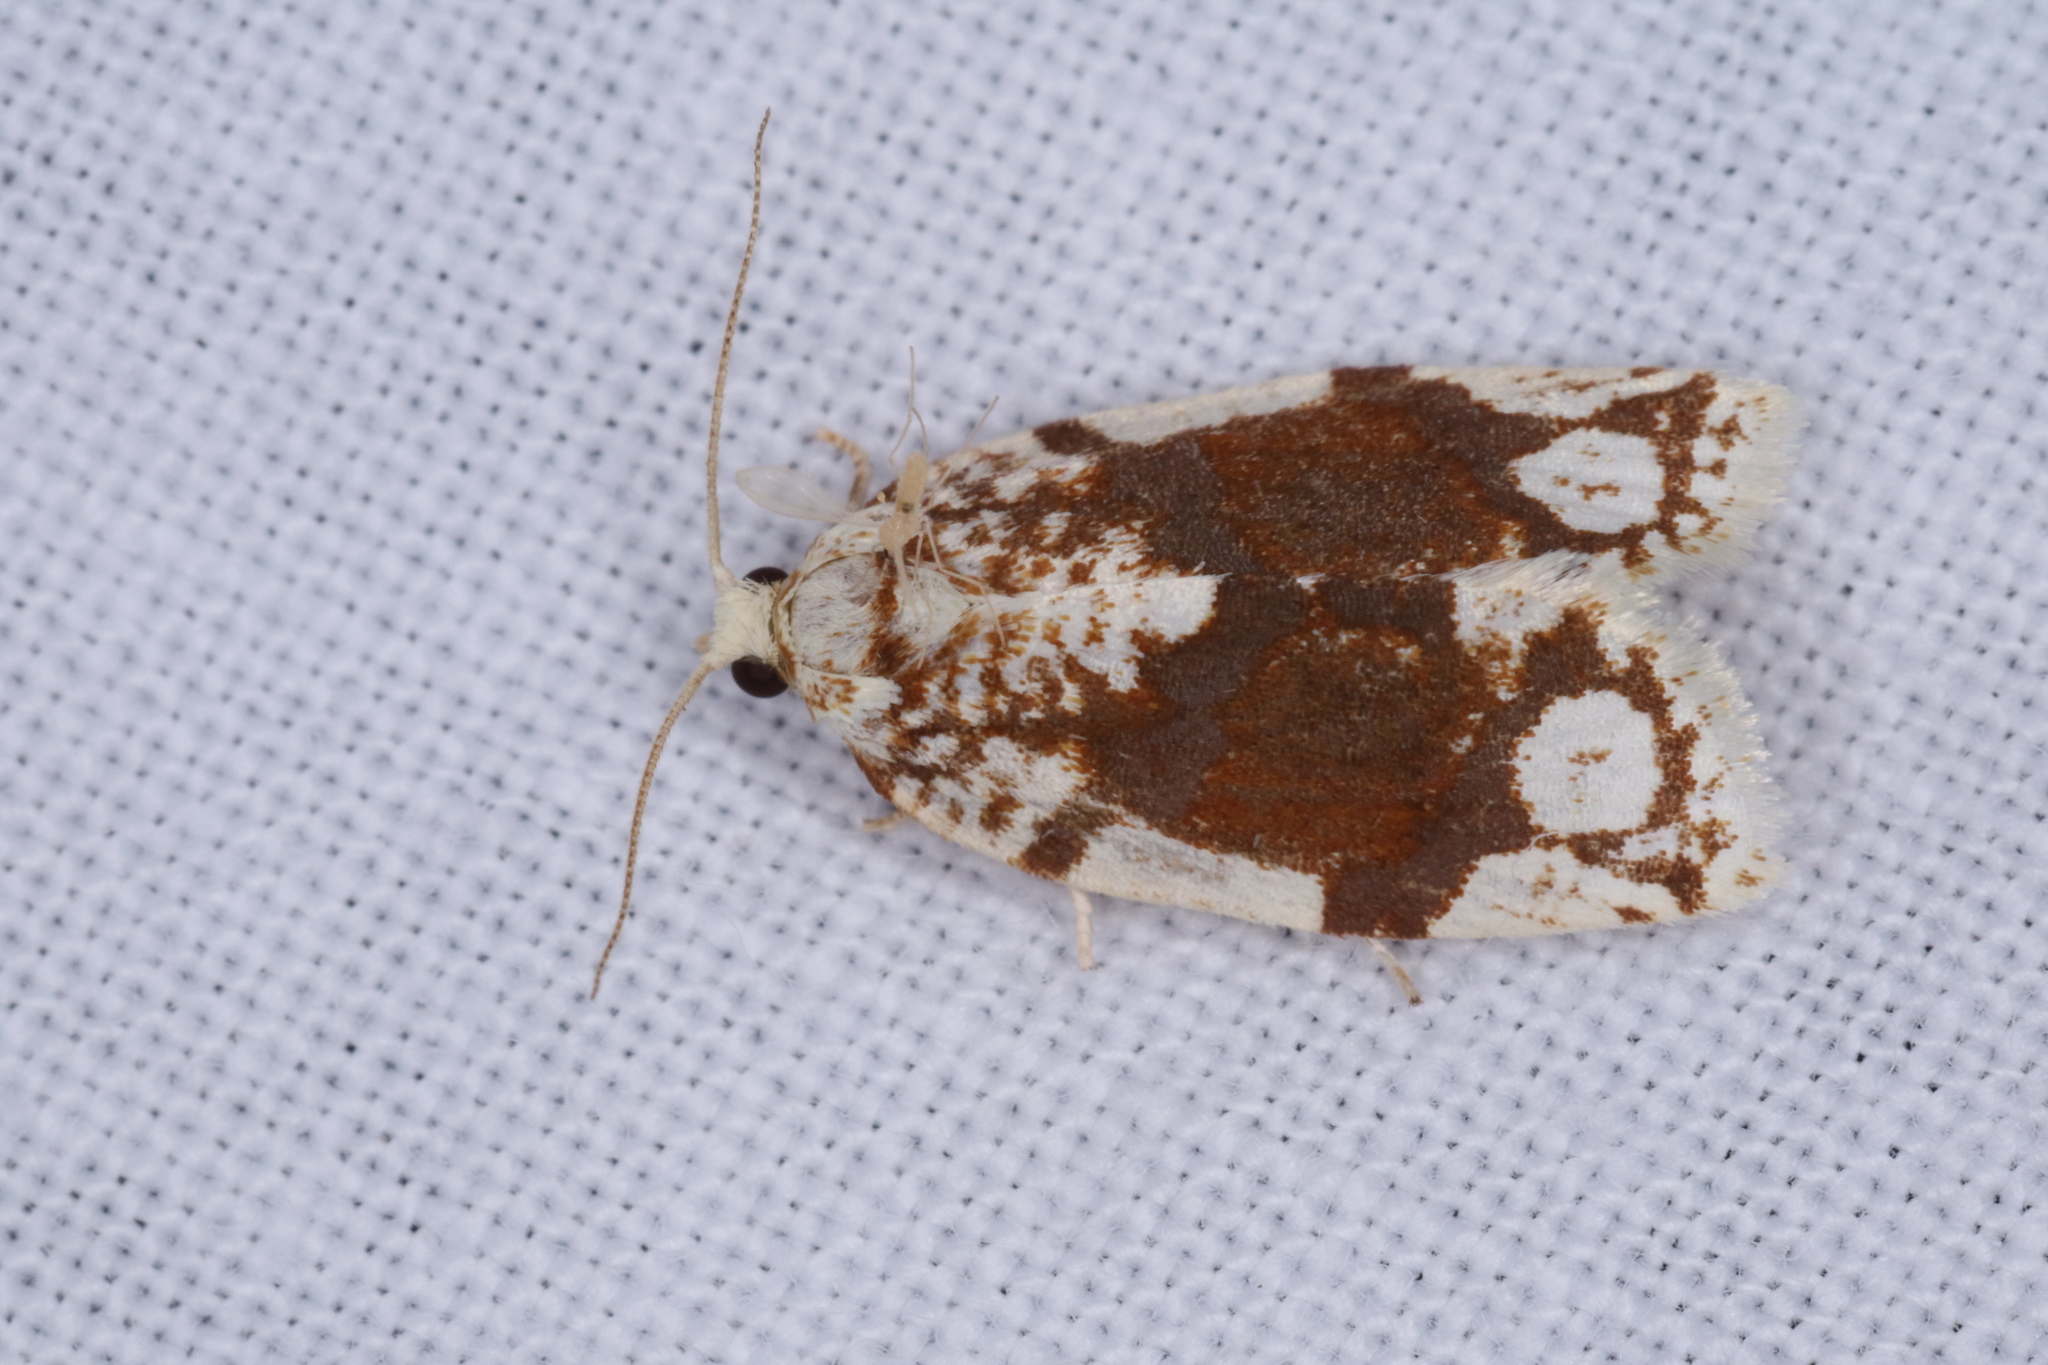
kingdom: Animalia
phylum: Arthropoda
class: Insecta
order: Lepidoptera
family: Tortricidae
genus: Argyrotaenia
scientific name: Argyrotaenia alisellana
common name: White-spotted leafroller moth
